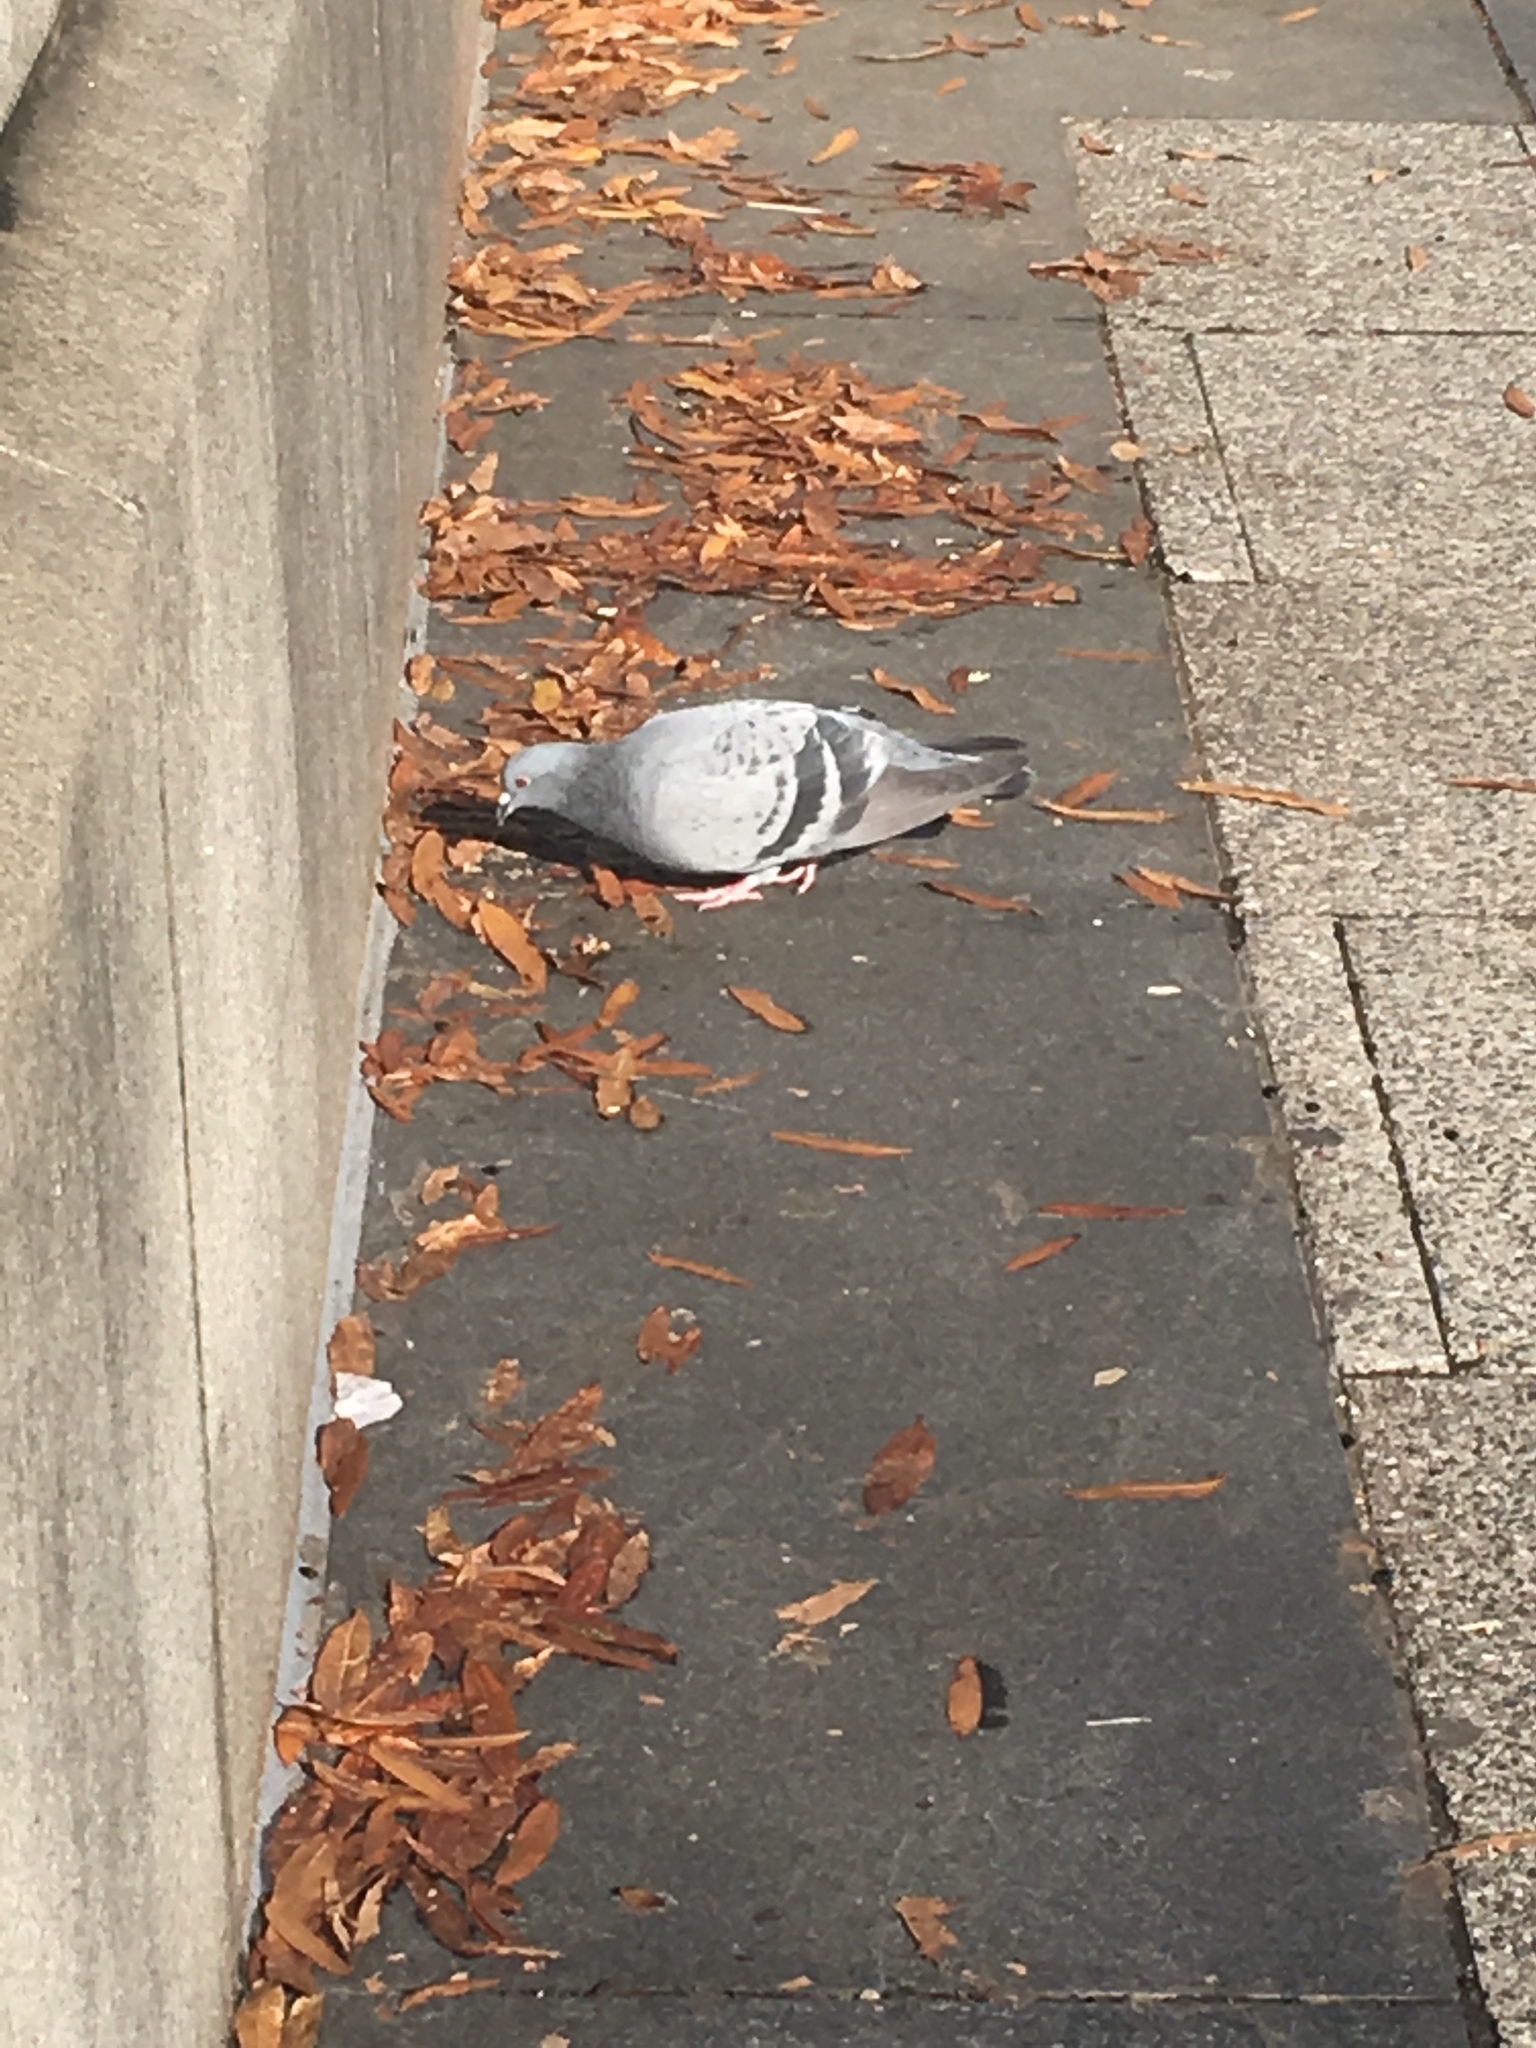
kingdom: Animalia
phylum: Chordata
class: Aves
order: Columbiformes
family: Columbidae
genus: Columba
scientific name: Columba livia
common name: Rock pigeon
